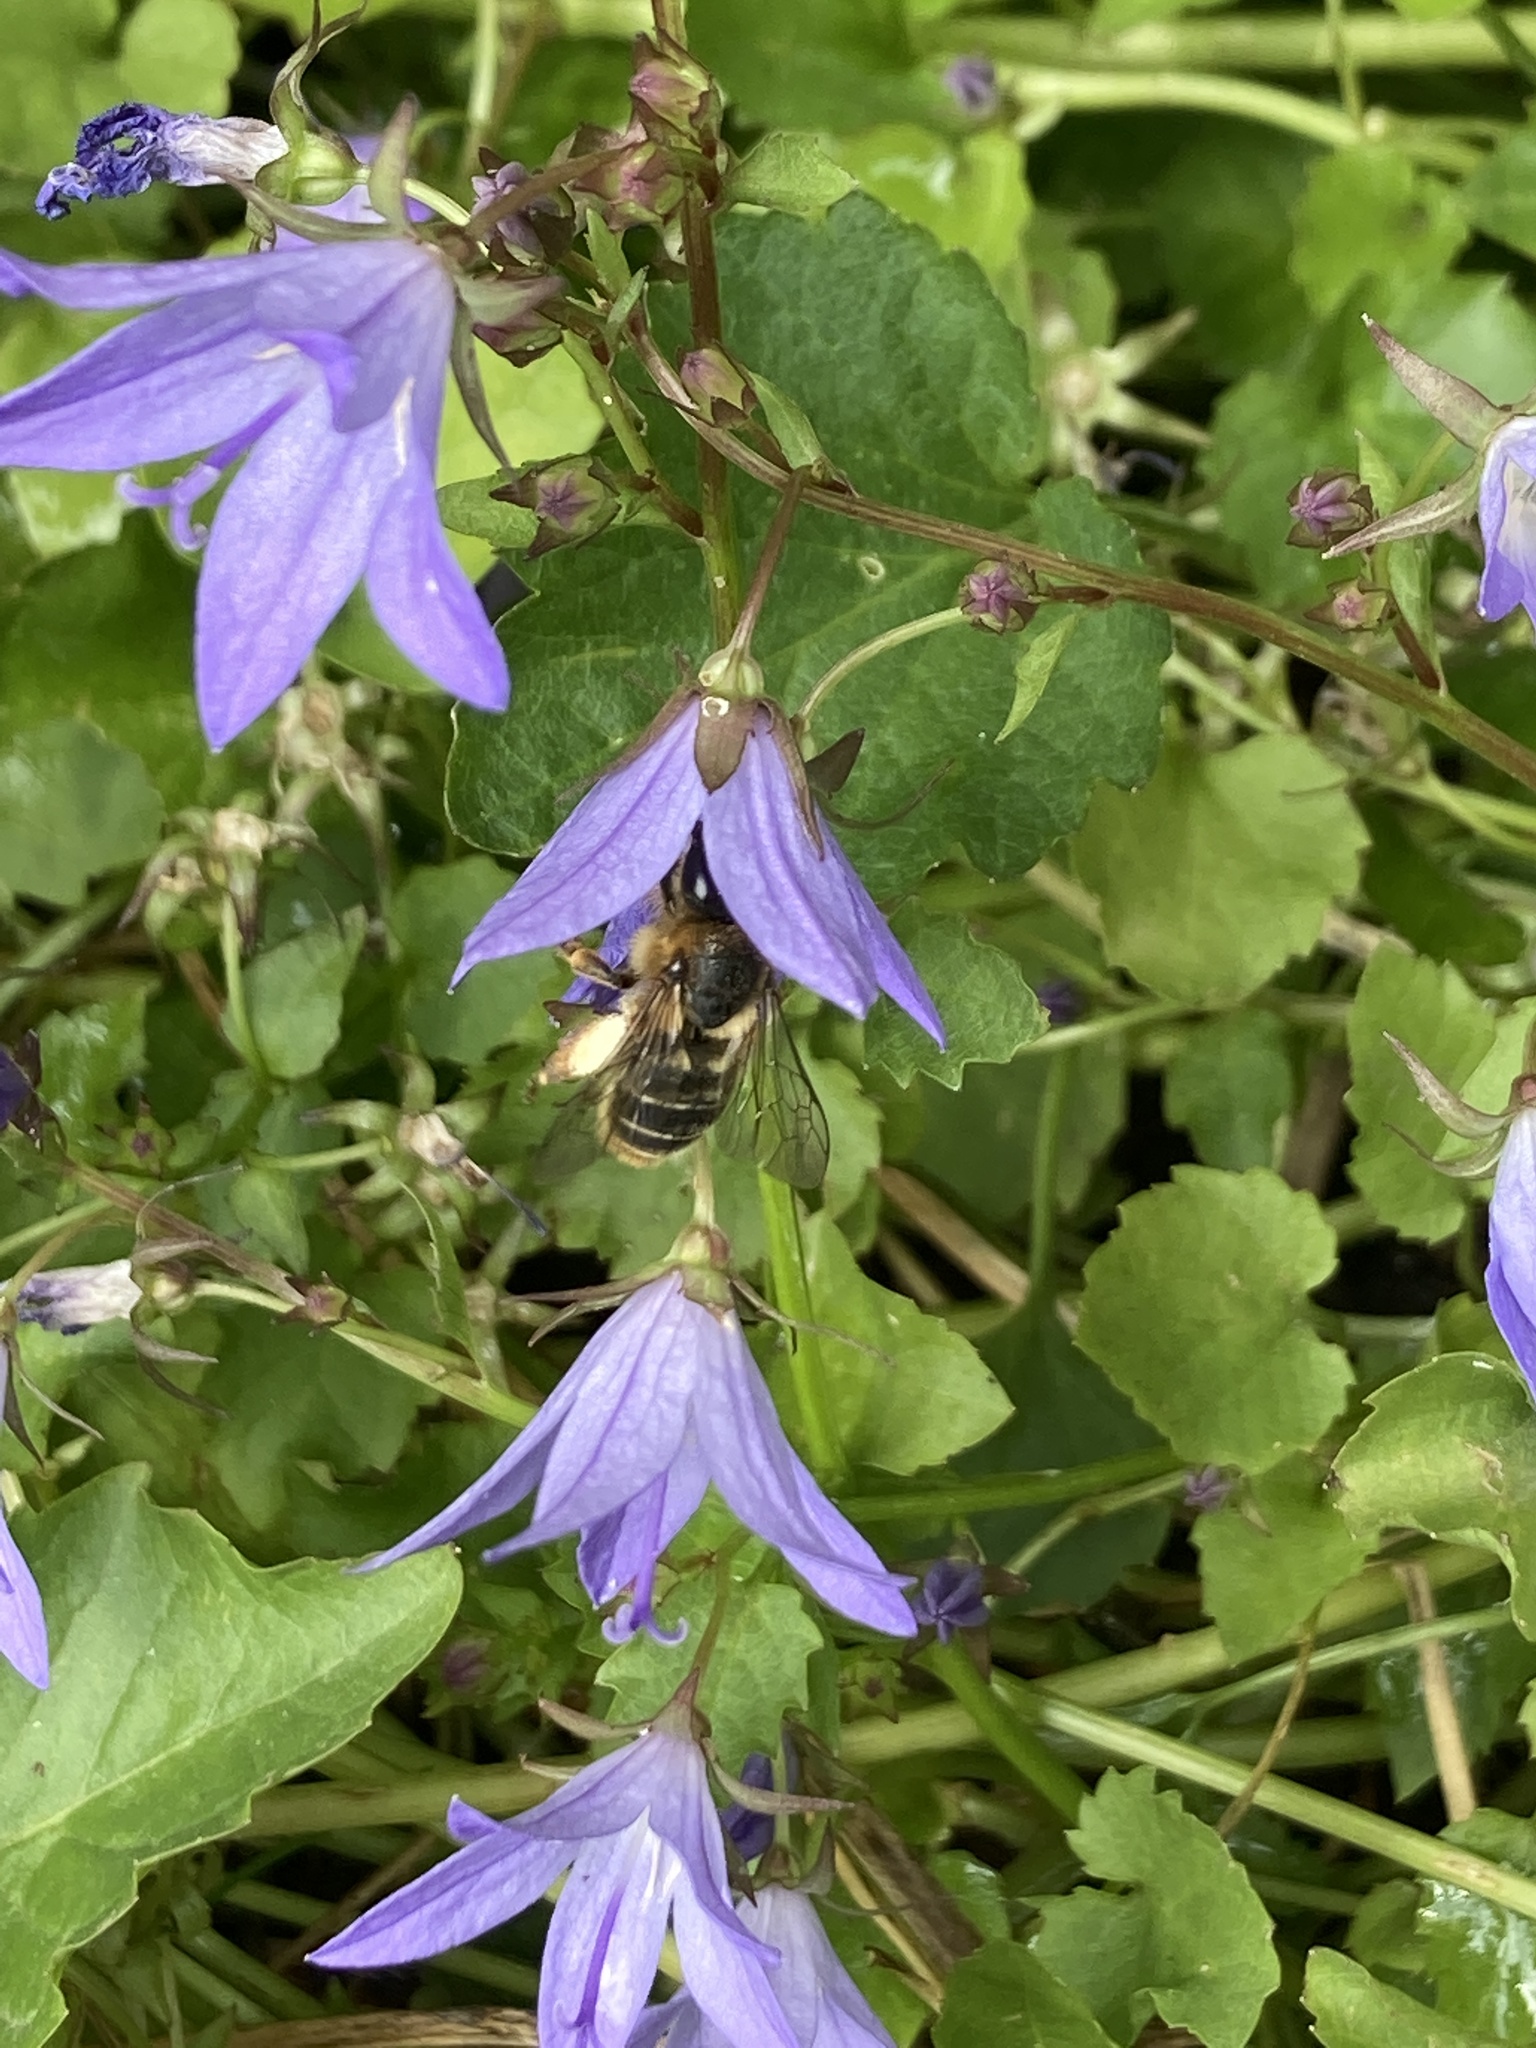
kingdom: Animalia
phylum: Arthropoda
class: Insecta
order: Hymenoptera
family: Melittidae
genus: Melitta
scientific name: Melitta haemorrhoidalis
